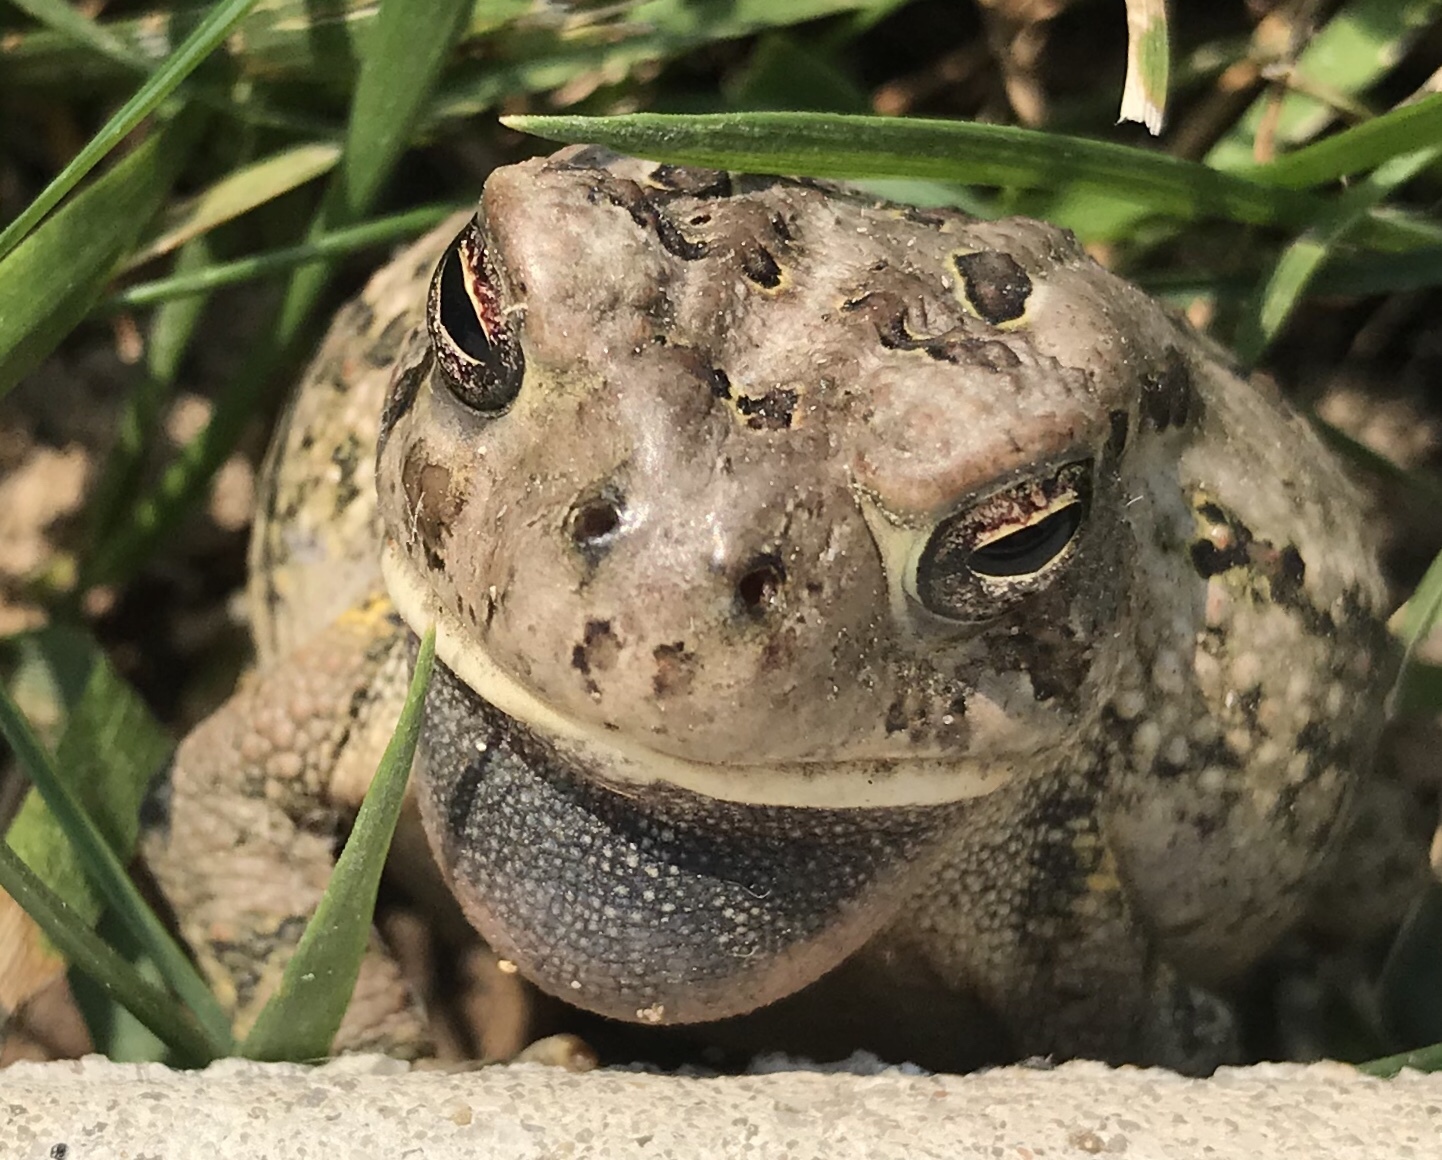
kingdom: Animalia
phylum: Chordata
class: Amphibia
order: Anura
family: Bufonidae
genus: Anaxyrus
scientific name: Anaxyrus fowleri
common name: Fowler's toad
